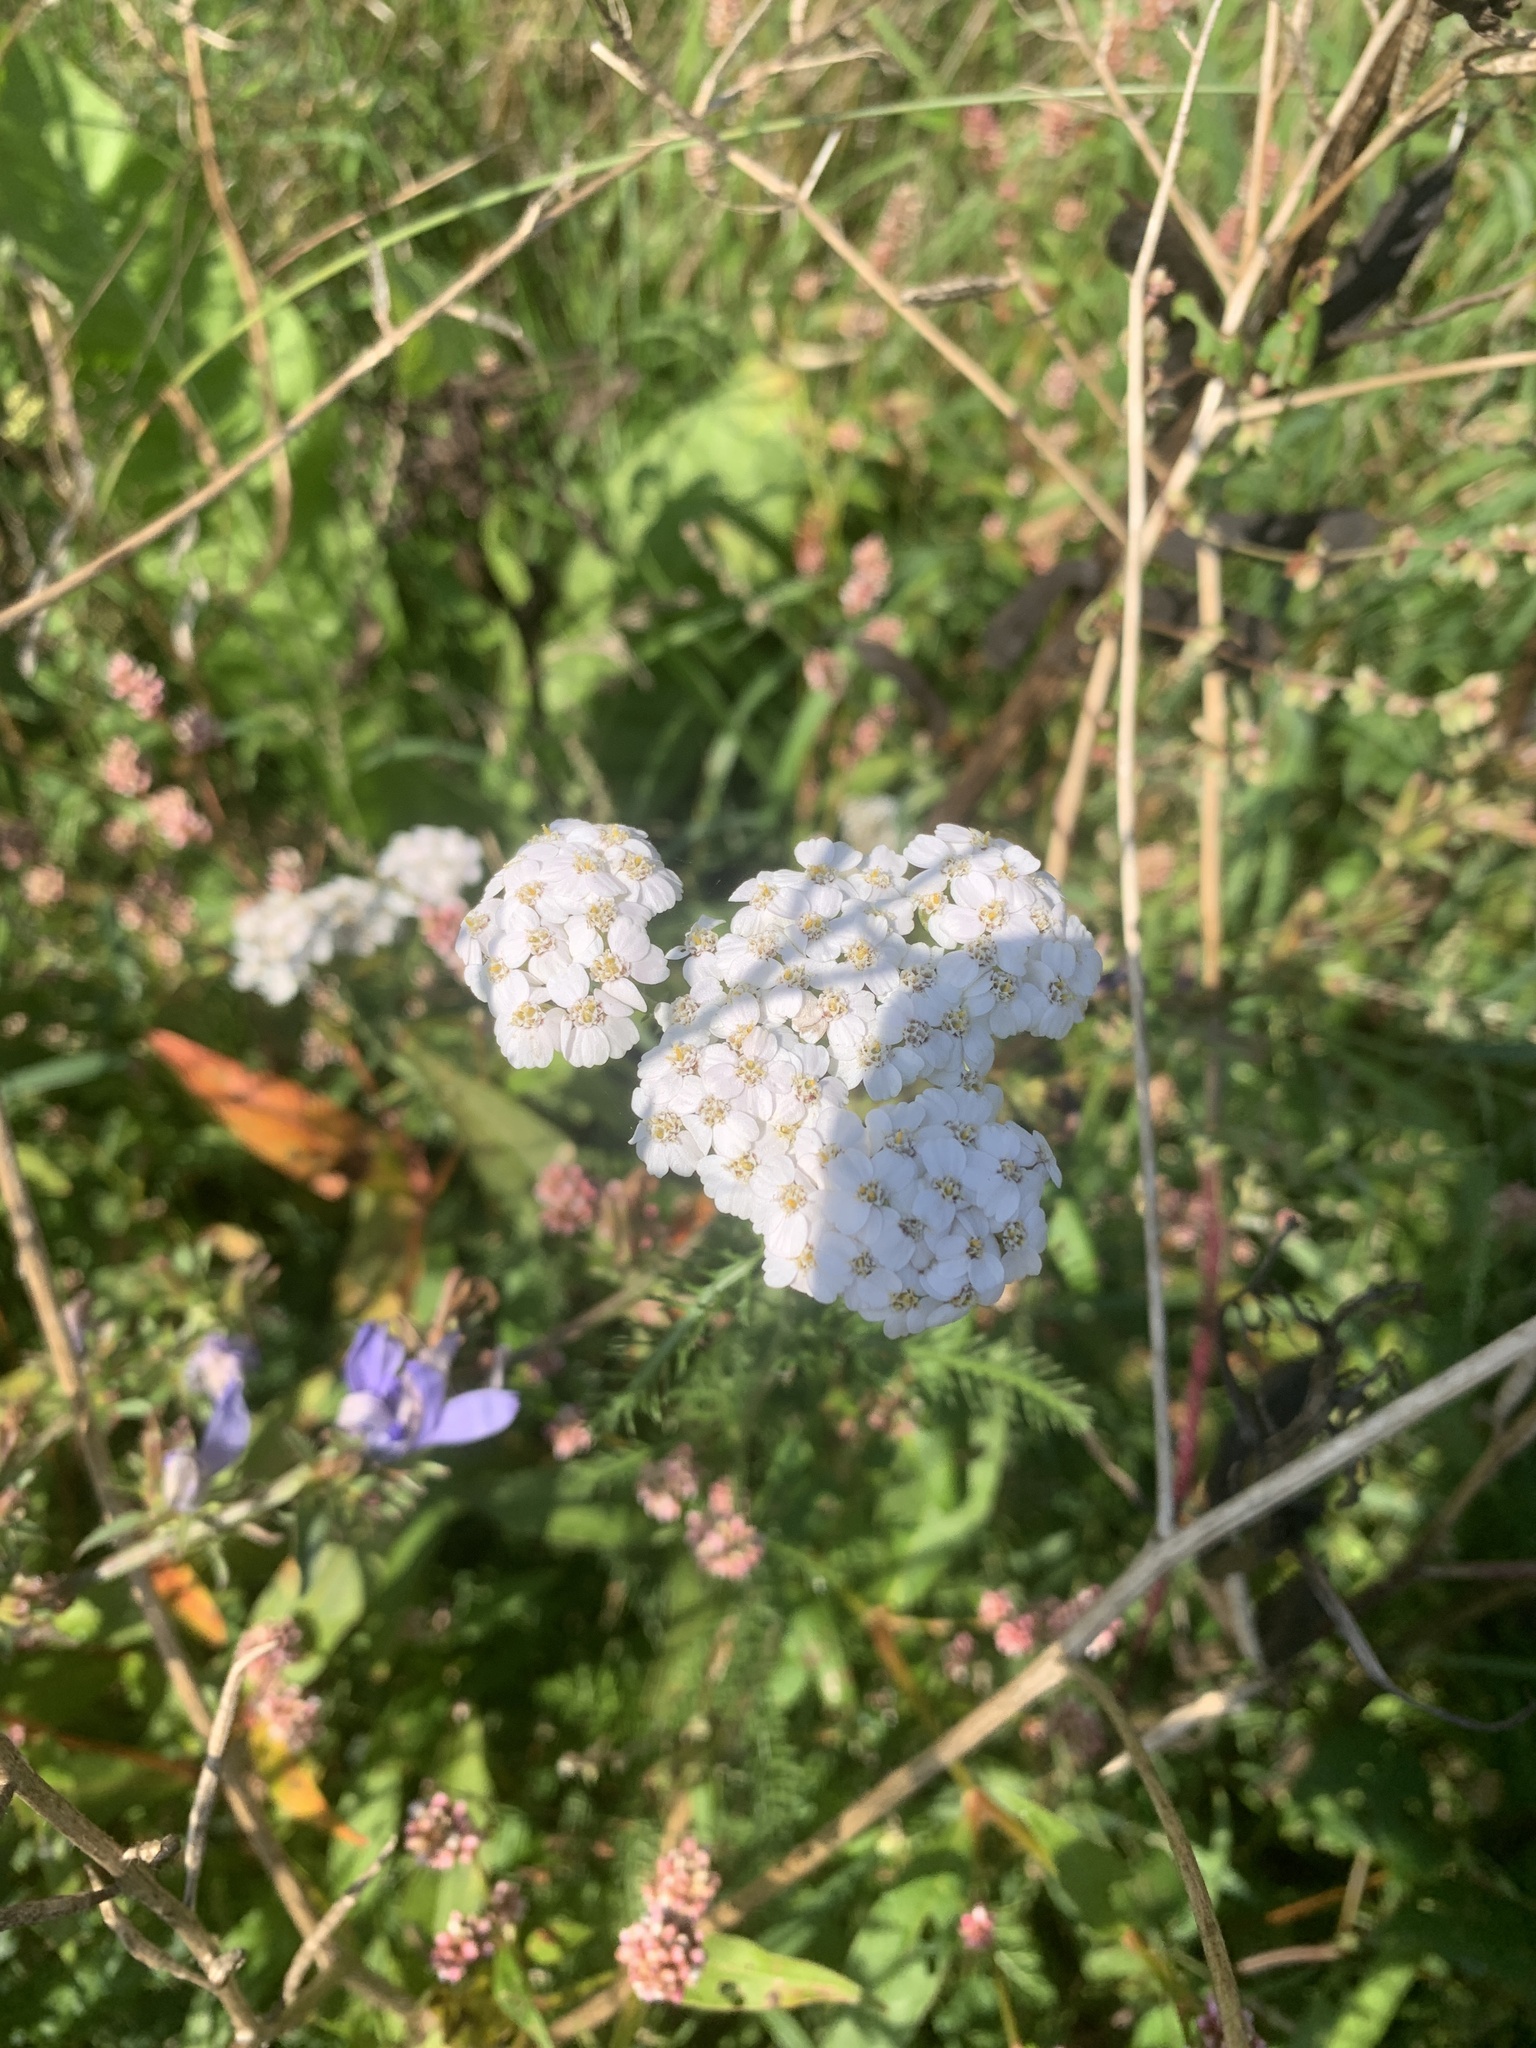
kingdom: Plantae
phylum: Tracheophyta
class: Magnoliopsida
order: Asterales
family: Asteraceae
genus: Achillea
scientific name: Achillea millefolium
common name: Yarrow
